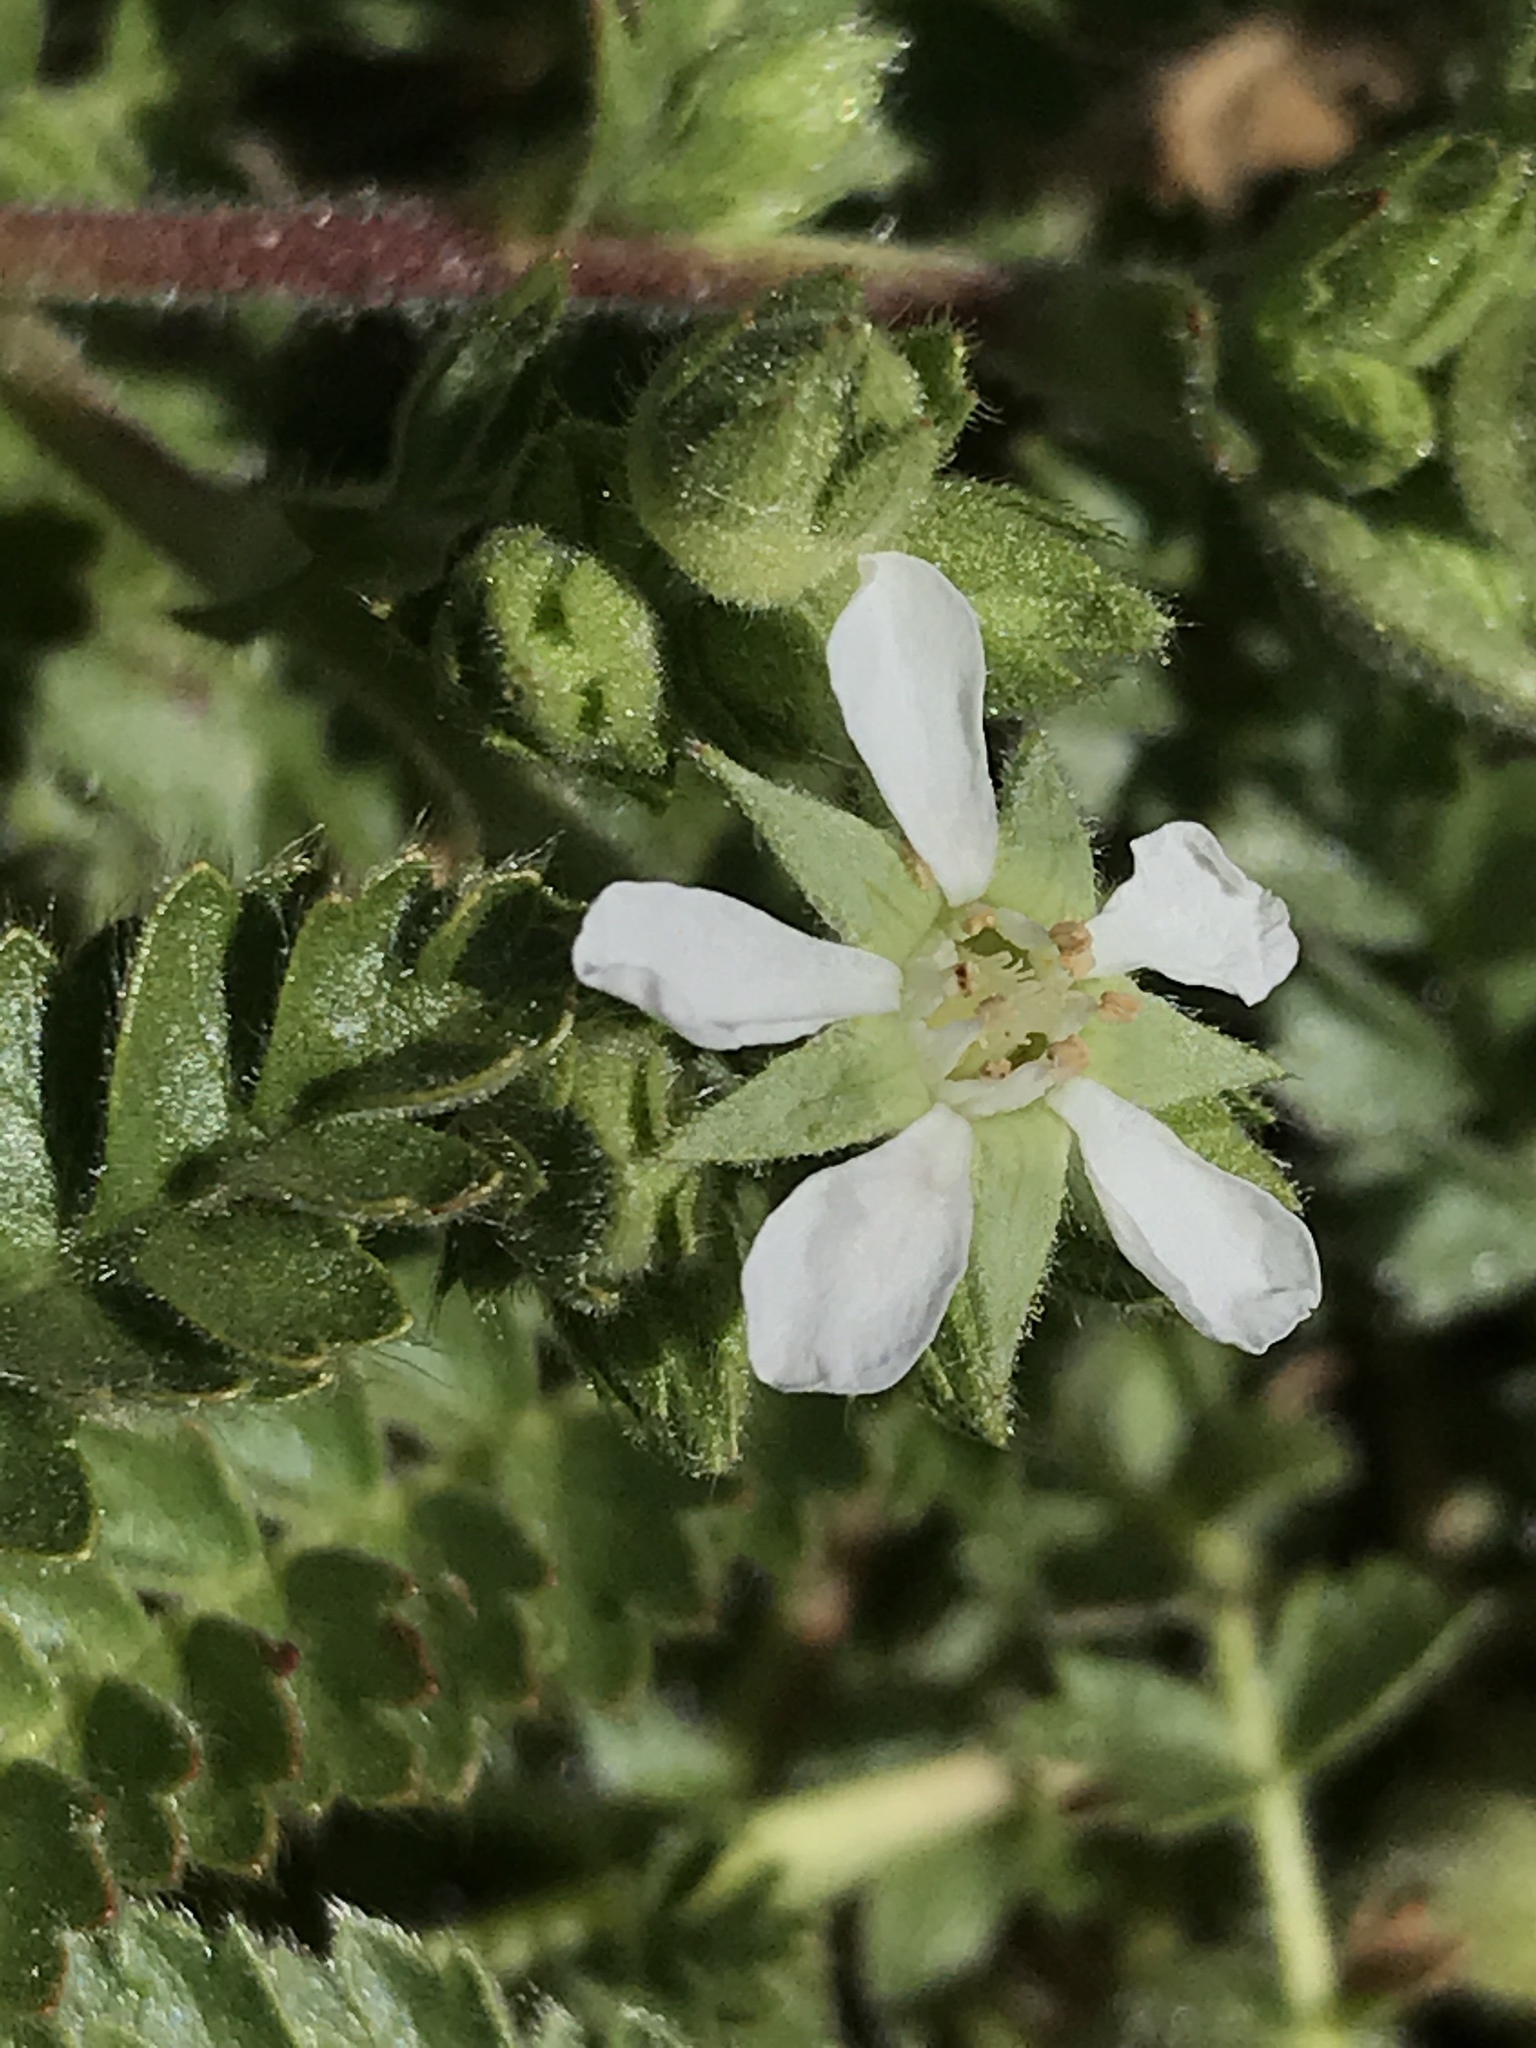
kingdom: Plantae
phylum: Tracheophyta
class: Magnoliopsida
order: Rosales
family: Rosaceae
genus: Potentilla
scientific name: Potentilla clevelandii
